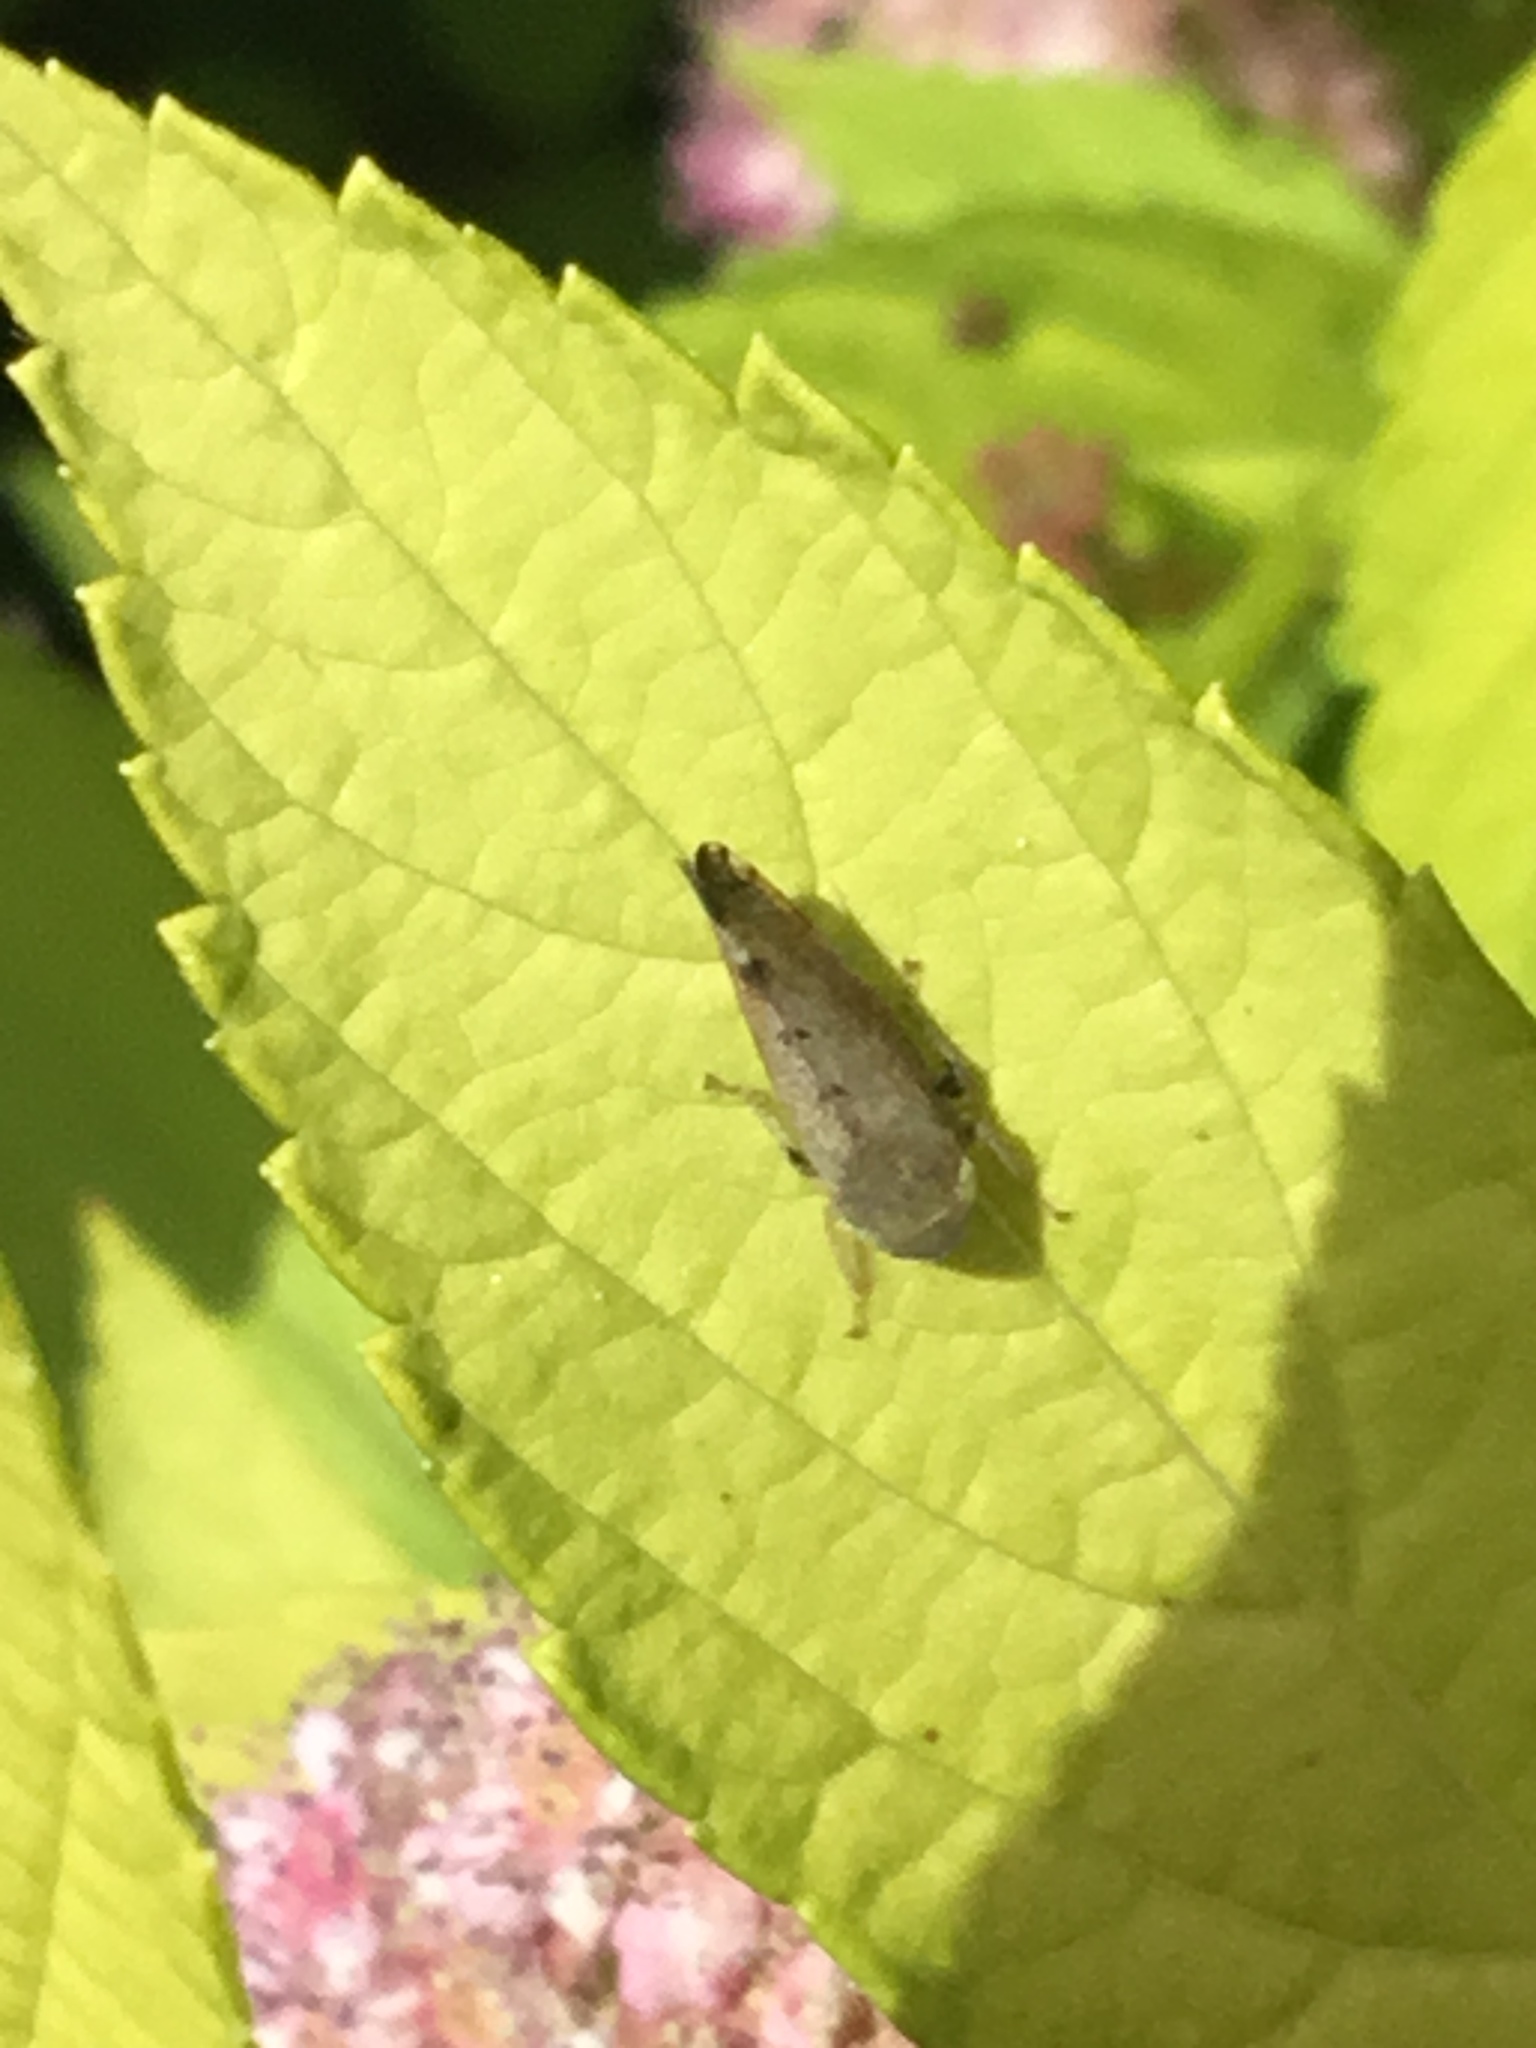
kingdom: Animalia
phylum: Arthropoda
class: Insecta
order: Hemiptera
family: Cicadellidae
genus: Fieberiella
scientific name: Fieberiella florii
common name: Flor’s leafhopper
